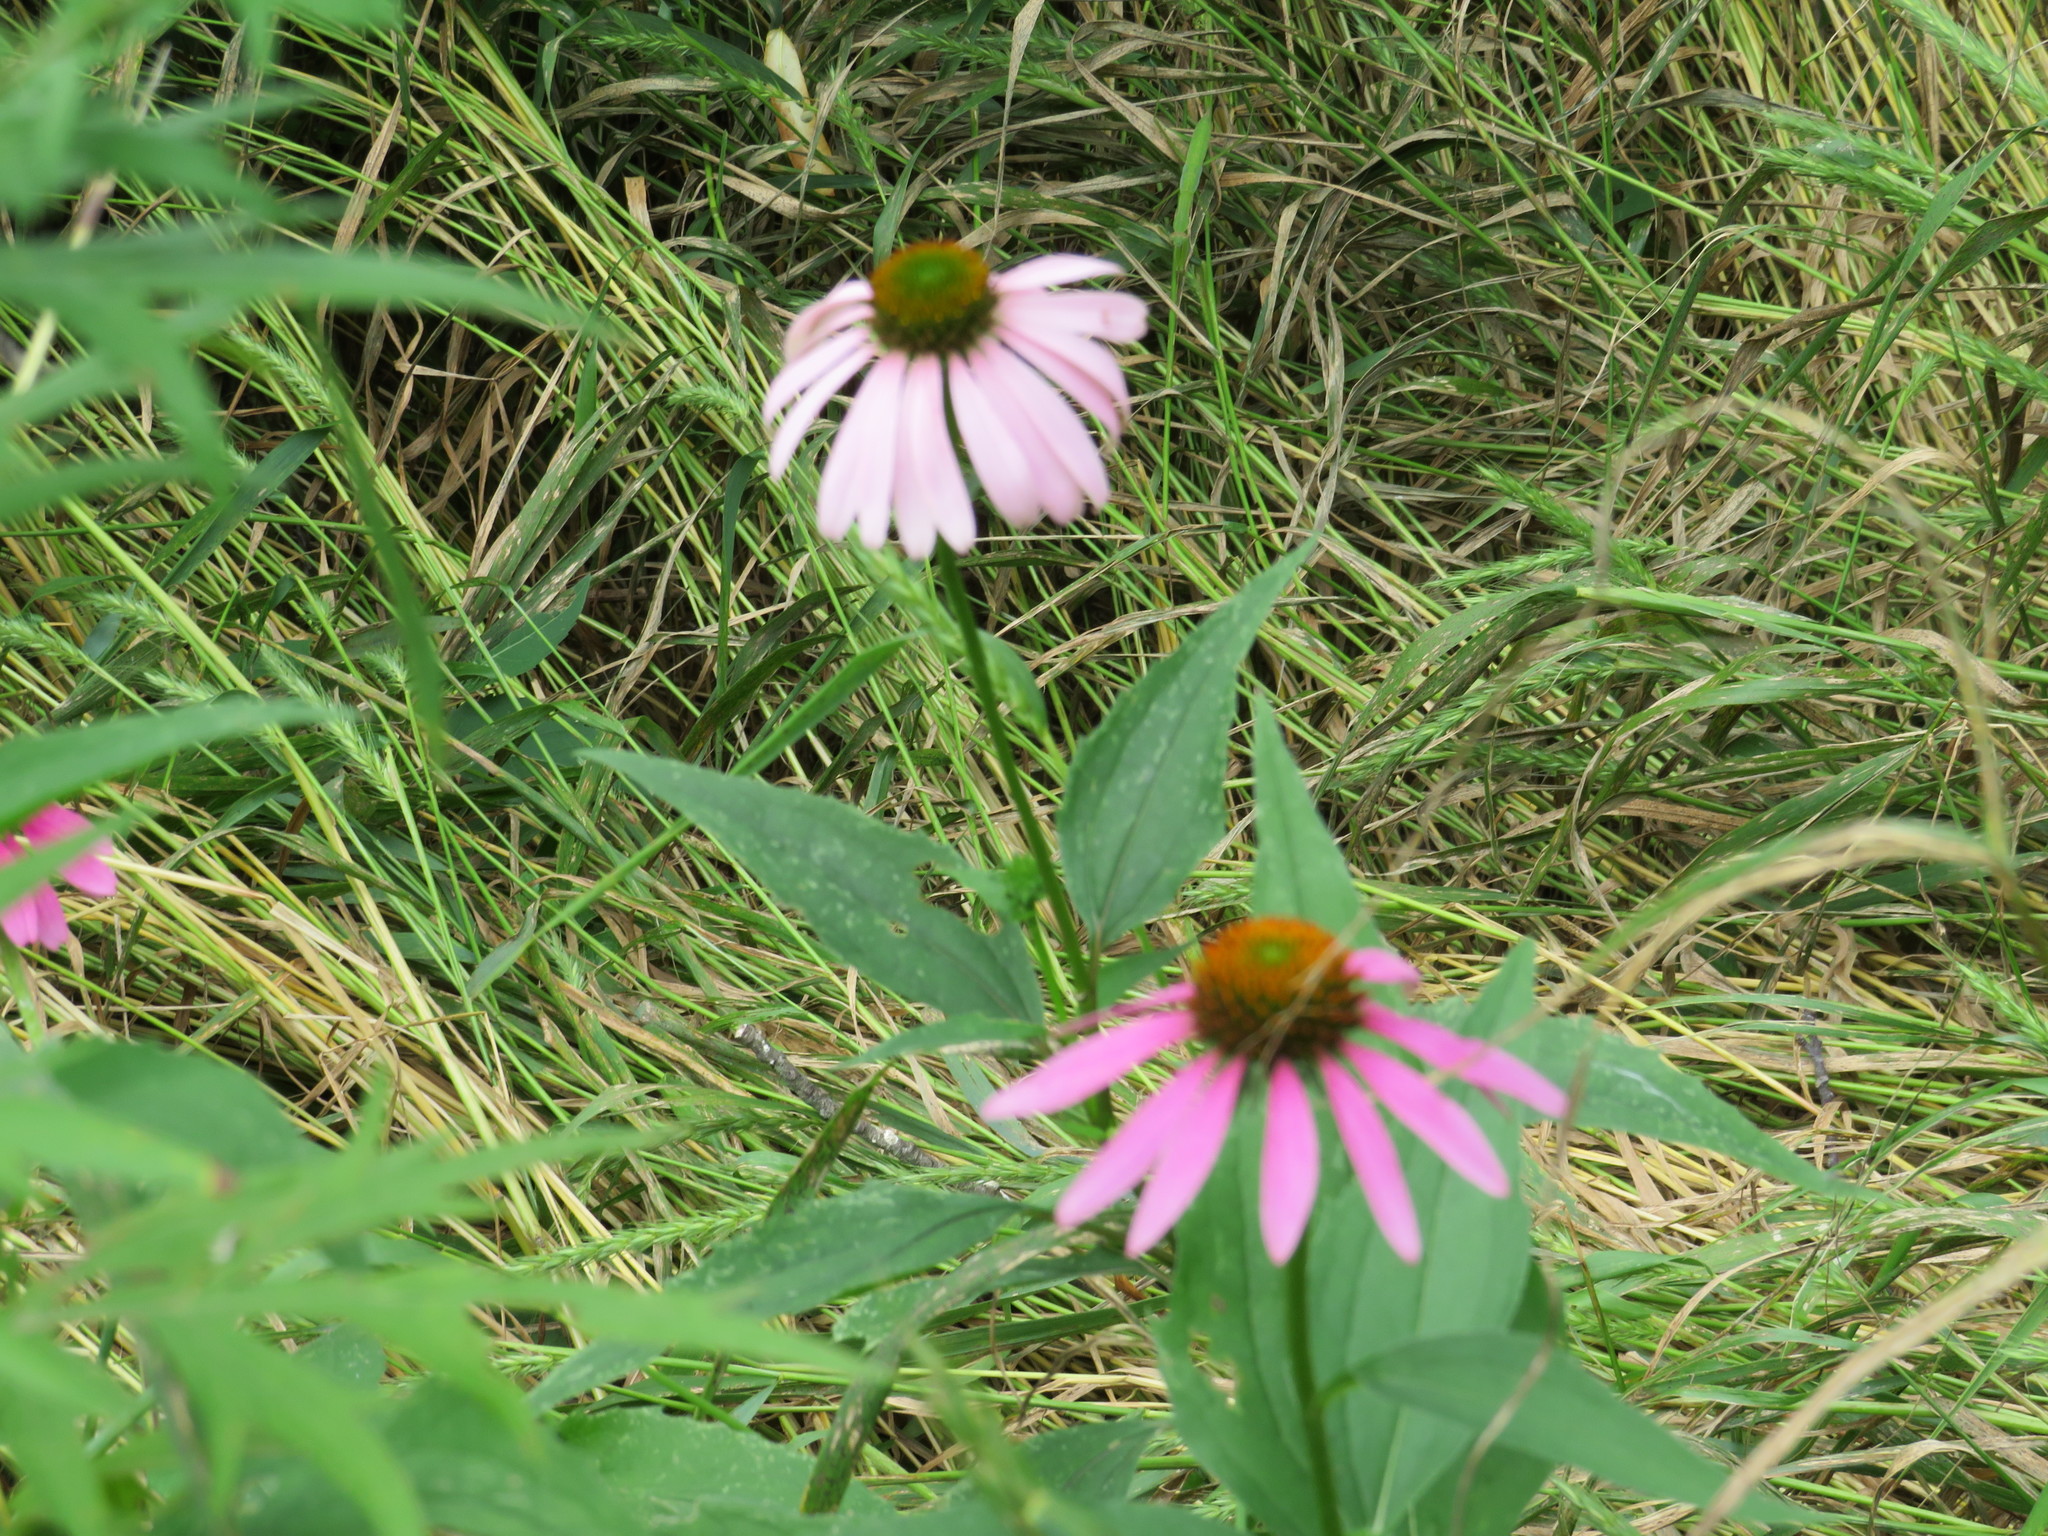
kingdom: Plantae
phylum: Tracheophyta
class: Magnoliopsida
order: Asterales
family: Asteraceae
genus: Echinacea
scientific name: Echinacea purpurea
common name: Broad-leaved purple coneflower
